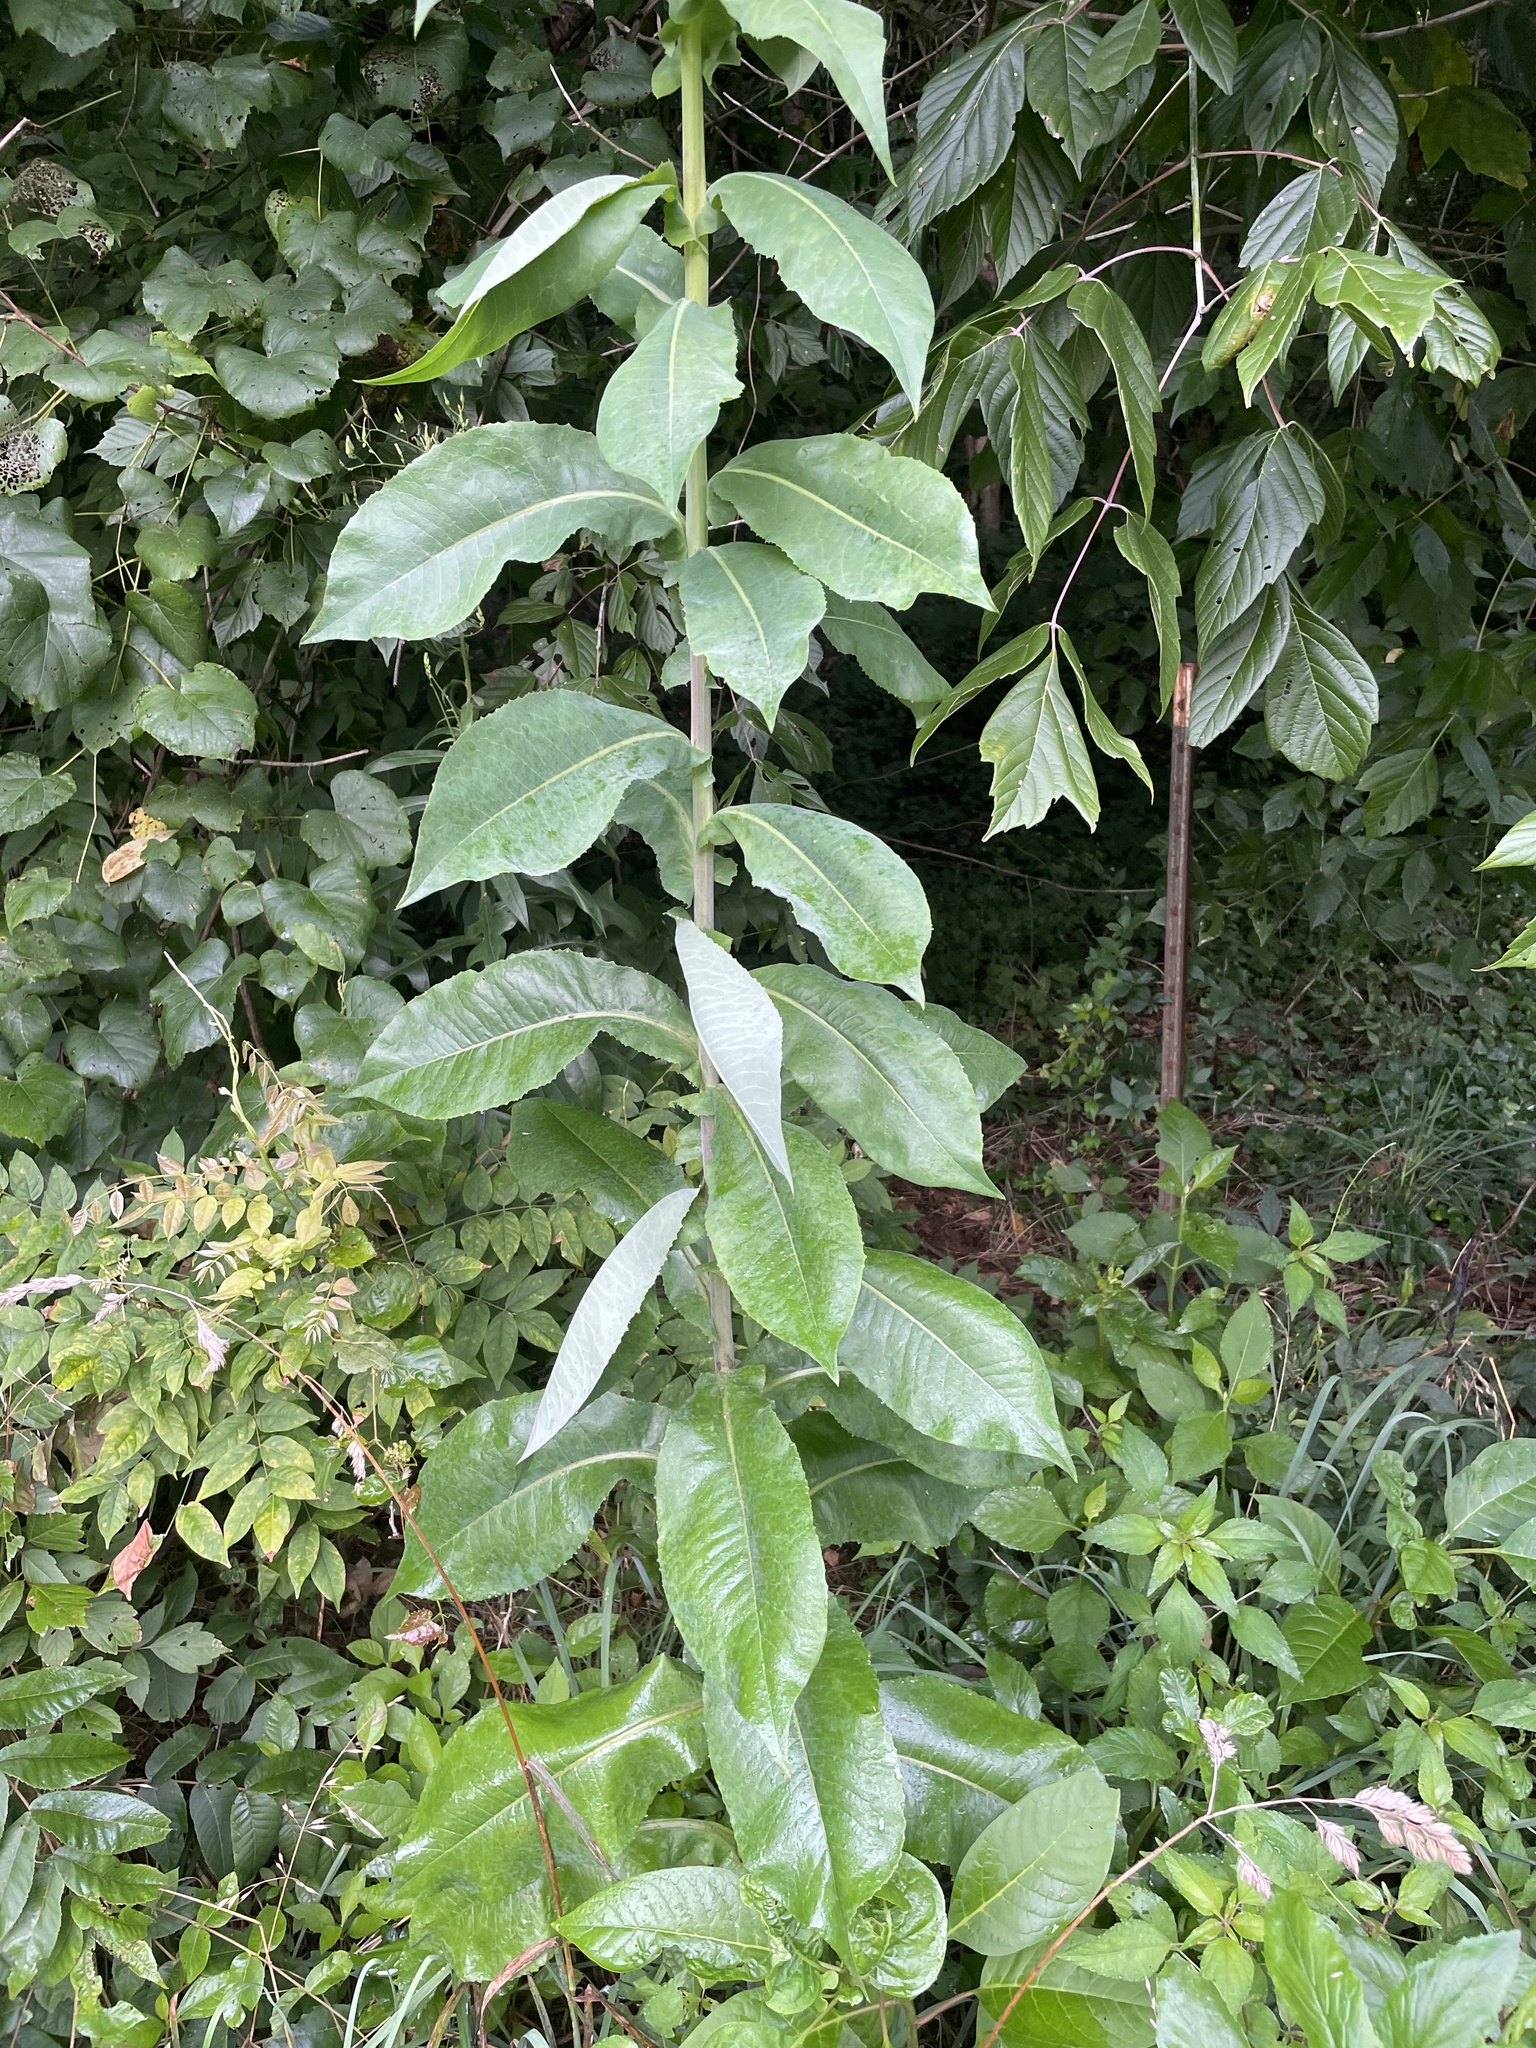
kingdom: Plantae
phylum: Tracheophyta
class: Magnoliopsida
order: Asterales
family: Asteraceae
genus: Lactuca
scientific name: Lactuca canadensis
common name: Canada lettuce
